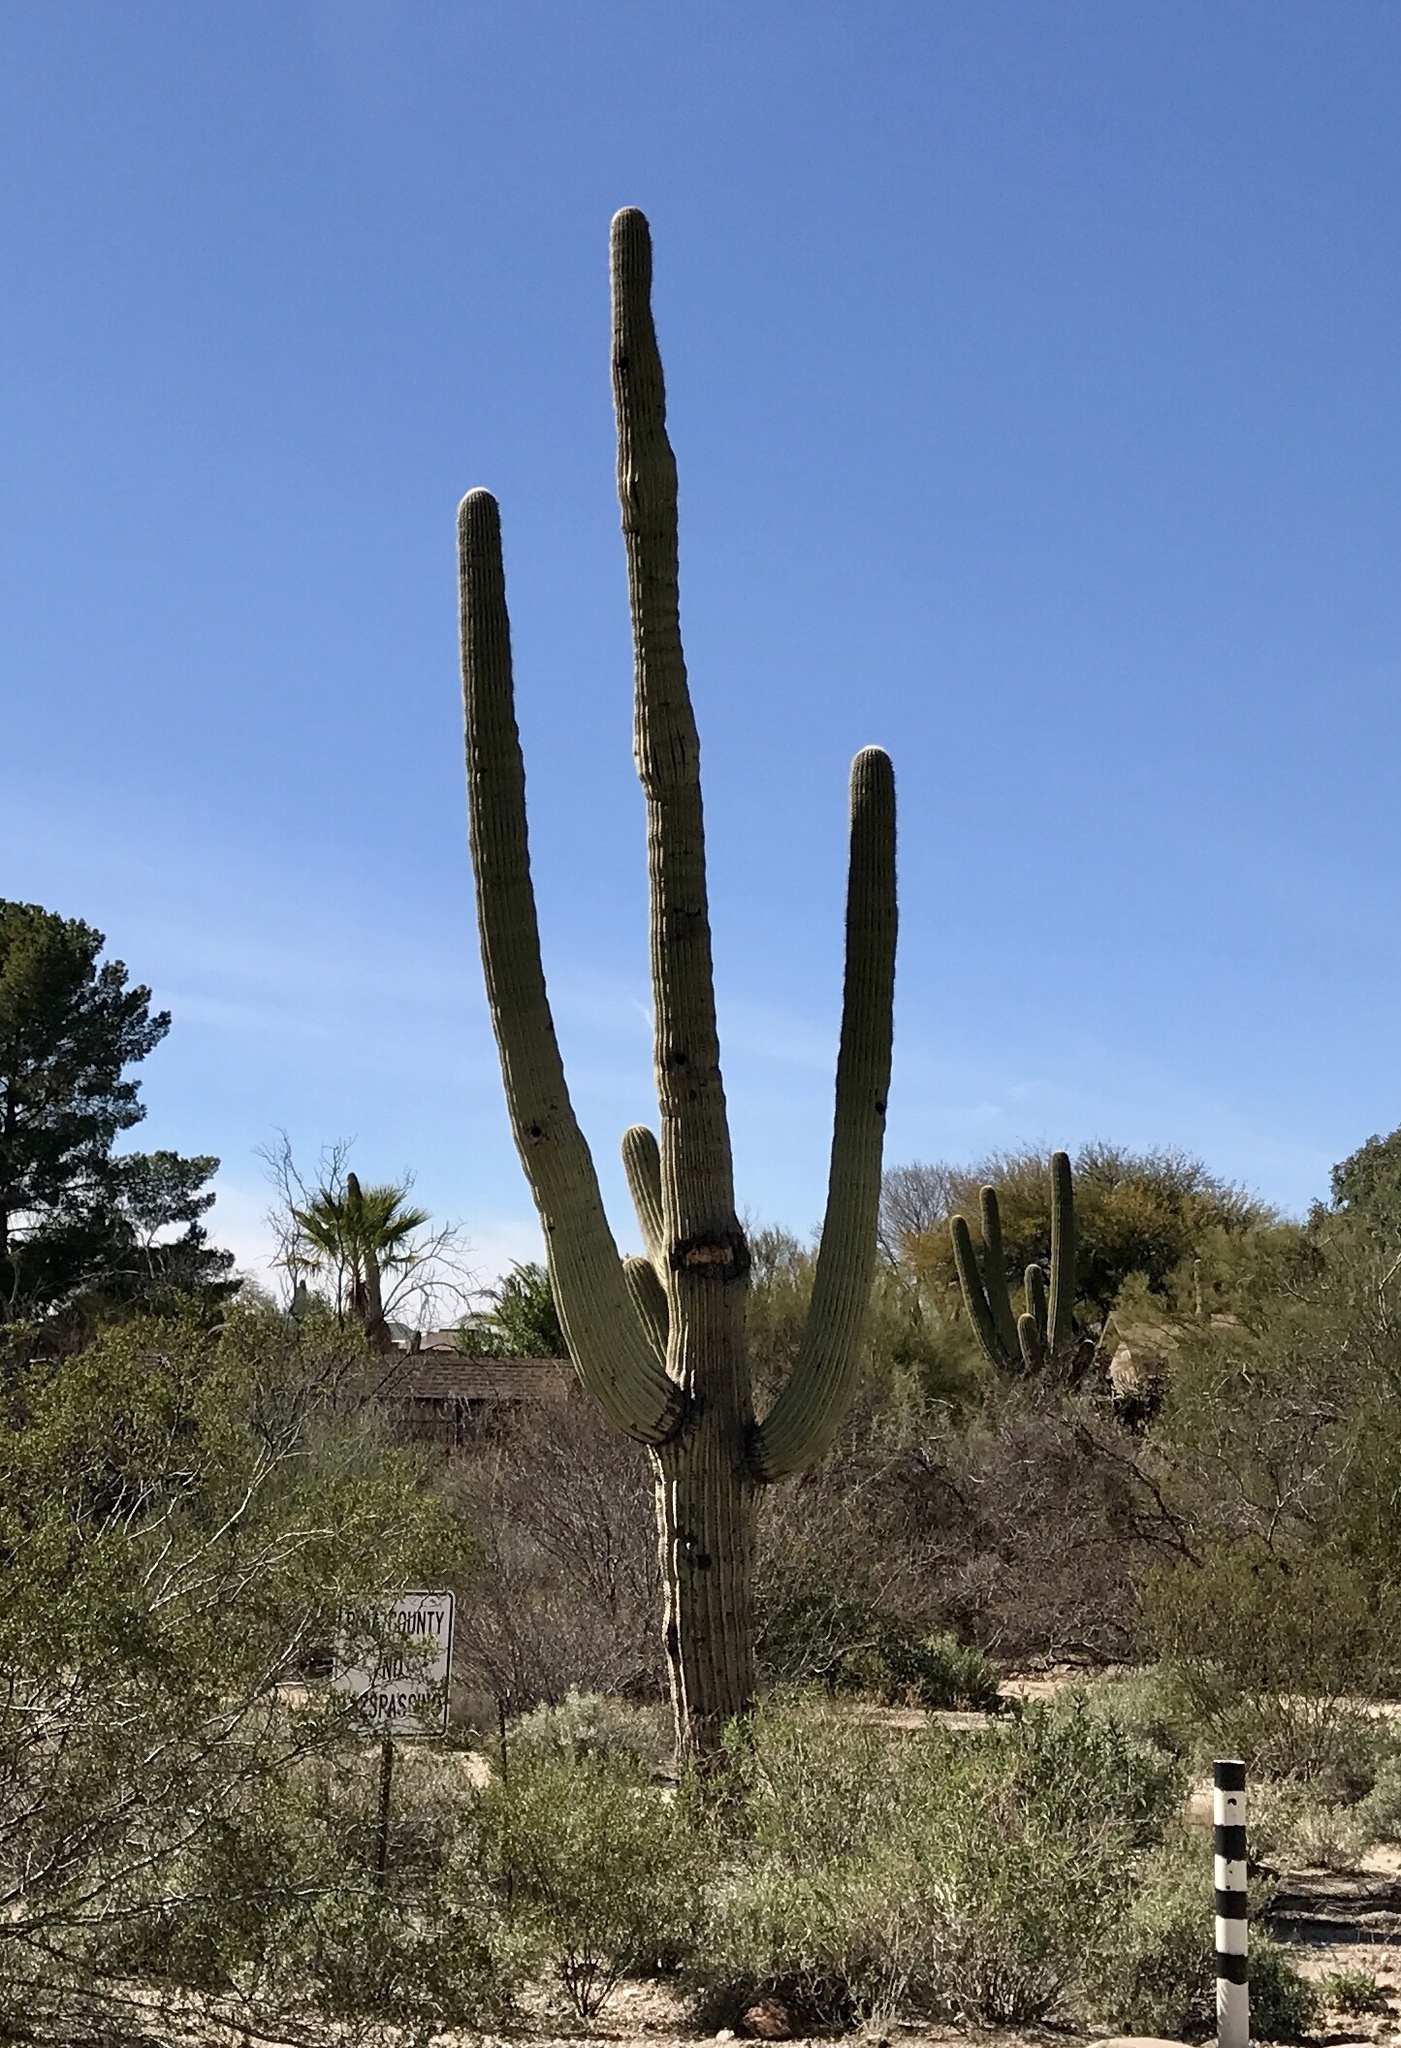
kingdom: Plantae
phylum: Tracheophyta
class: Magnoliopsida
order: Caryophyllales
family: Cactaceae
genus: Carnegiea
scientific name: Carnegiea gigantea
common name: Saguaro
